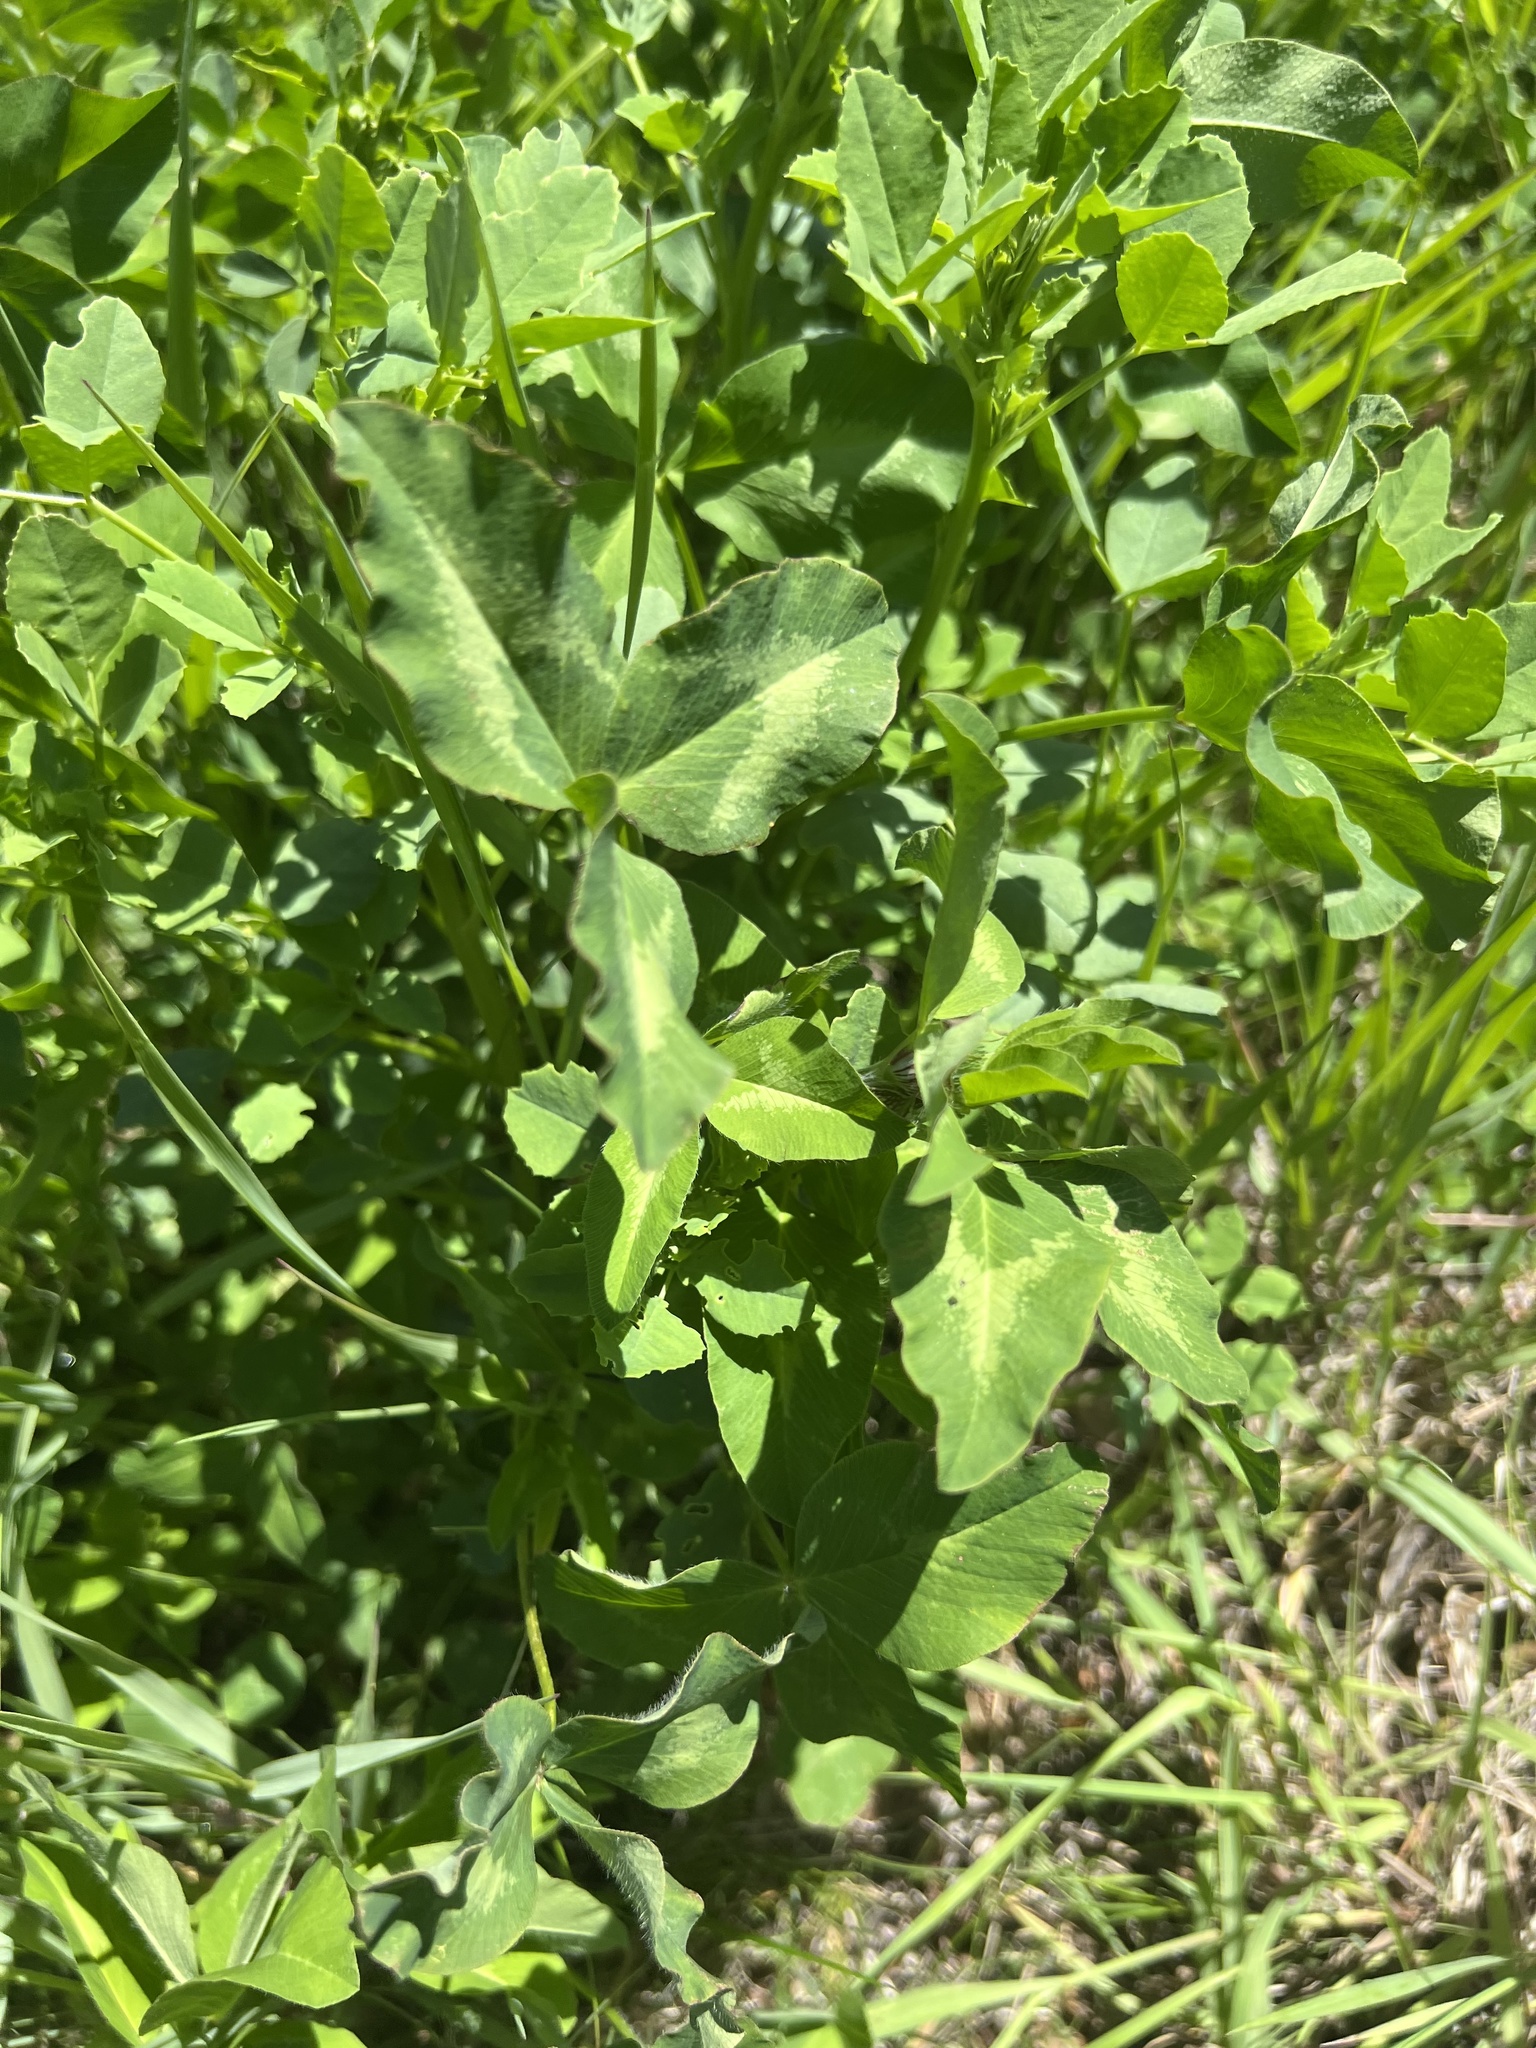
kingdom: Plantae
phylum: Tracheophyta
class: Magnoliopsida
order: Fabales
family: Fabaceae
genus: Trifolium
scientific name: Trifolium pratense
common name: Red clover
